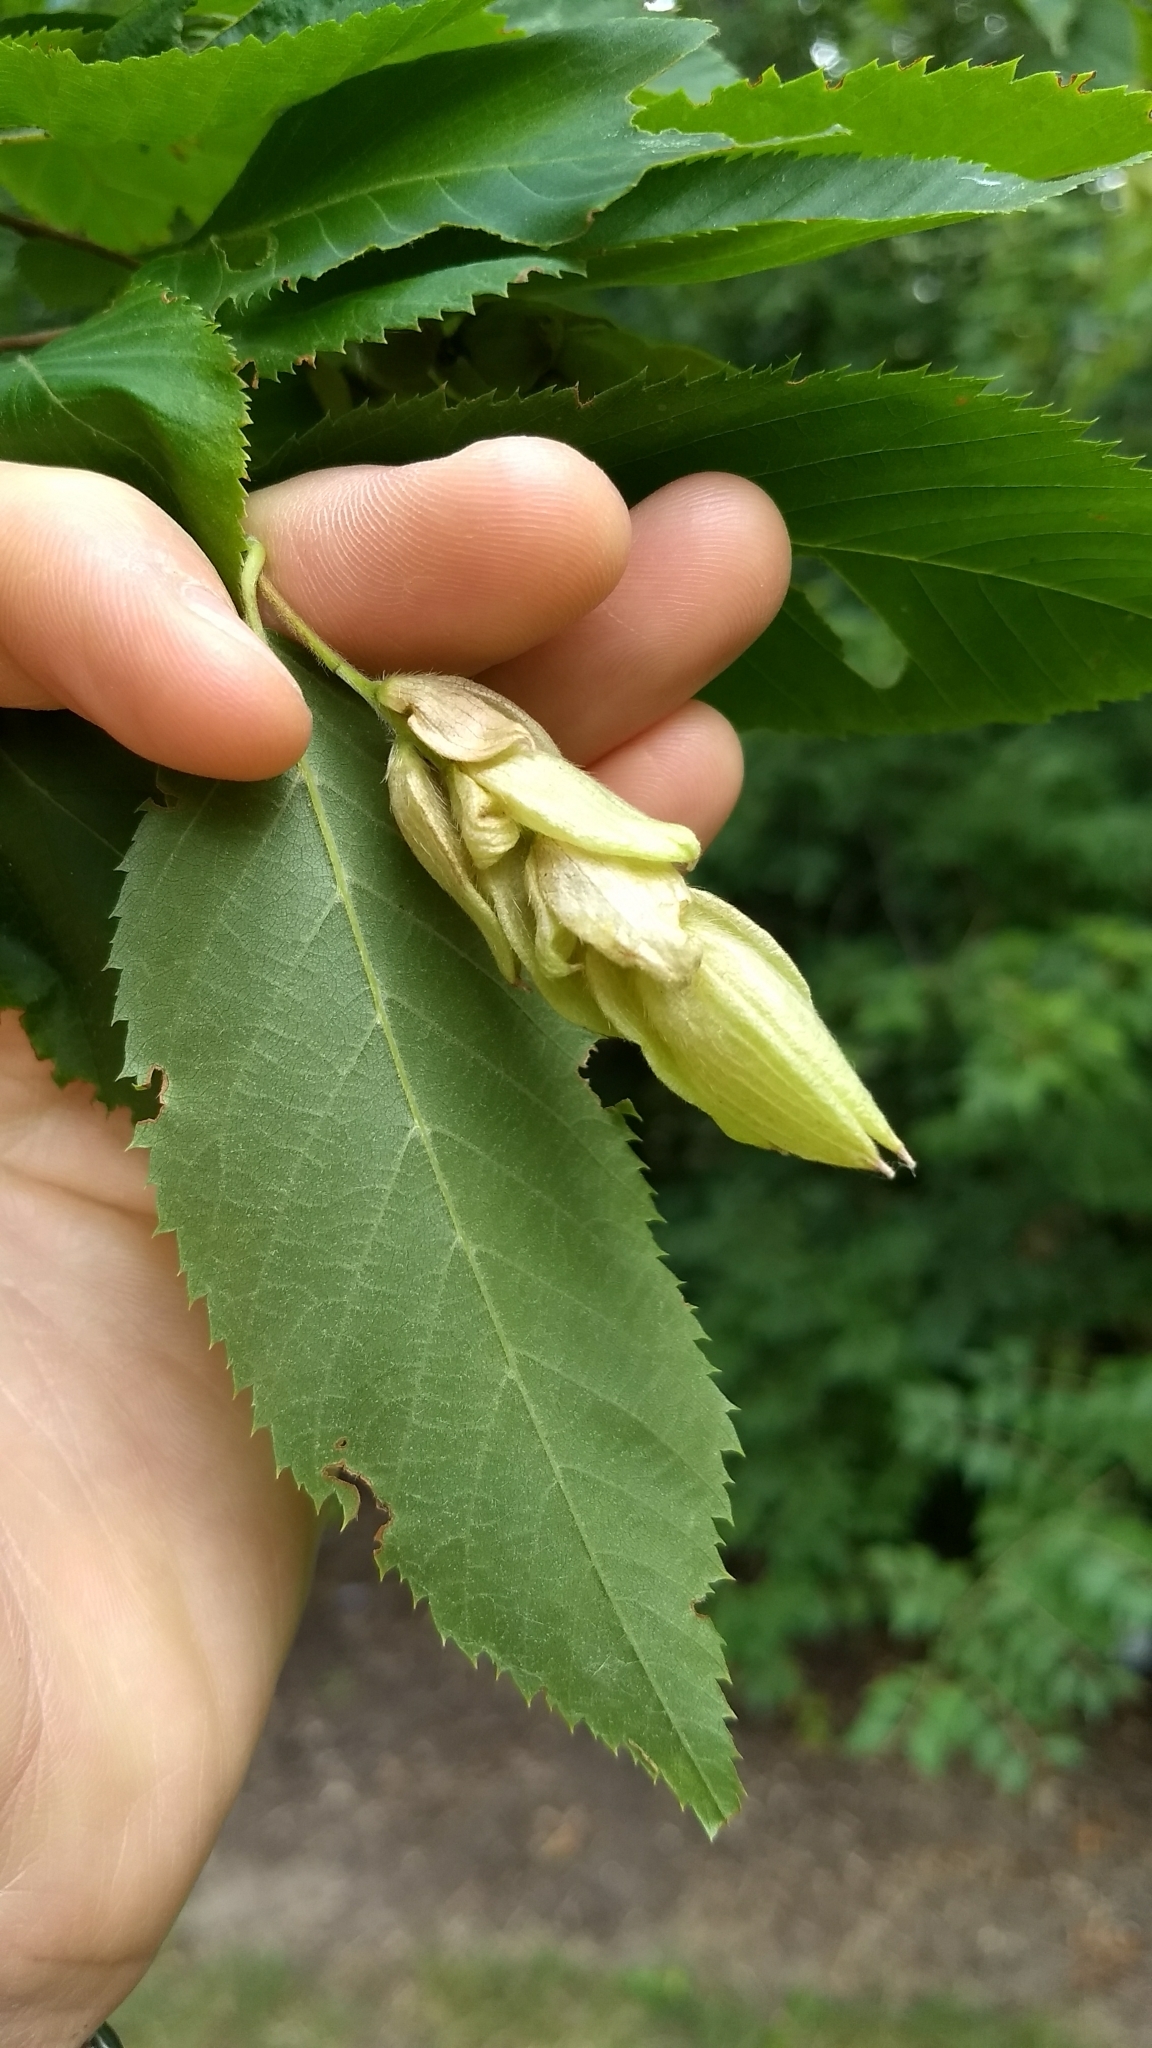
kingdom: Plantae
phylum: Tracheophyta
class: Magnoliopsida
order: Fagales
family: Betulaceae
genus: Ostrya
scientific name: Ostrya virginiana
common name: Ironwood
